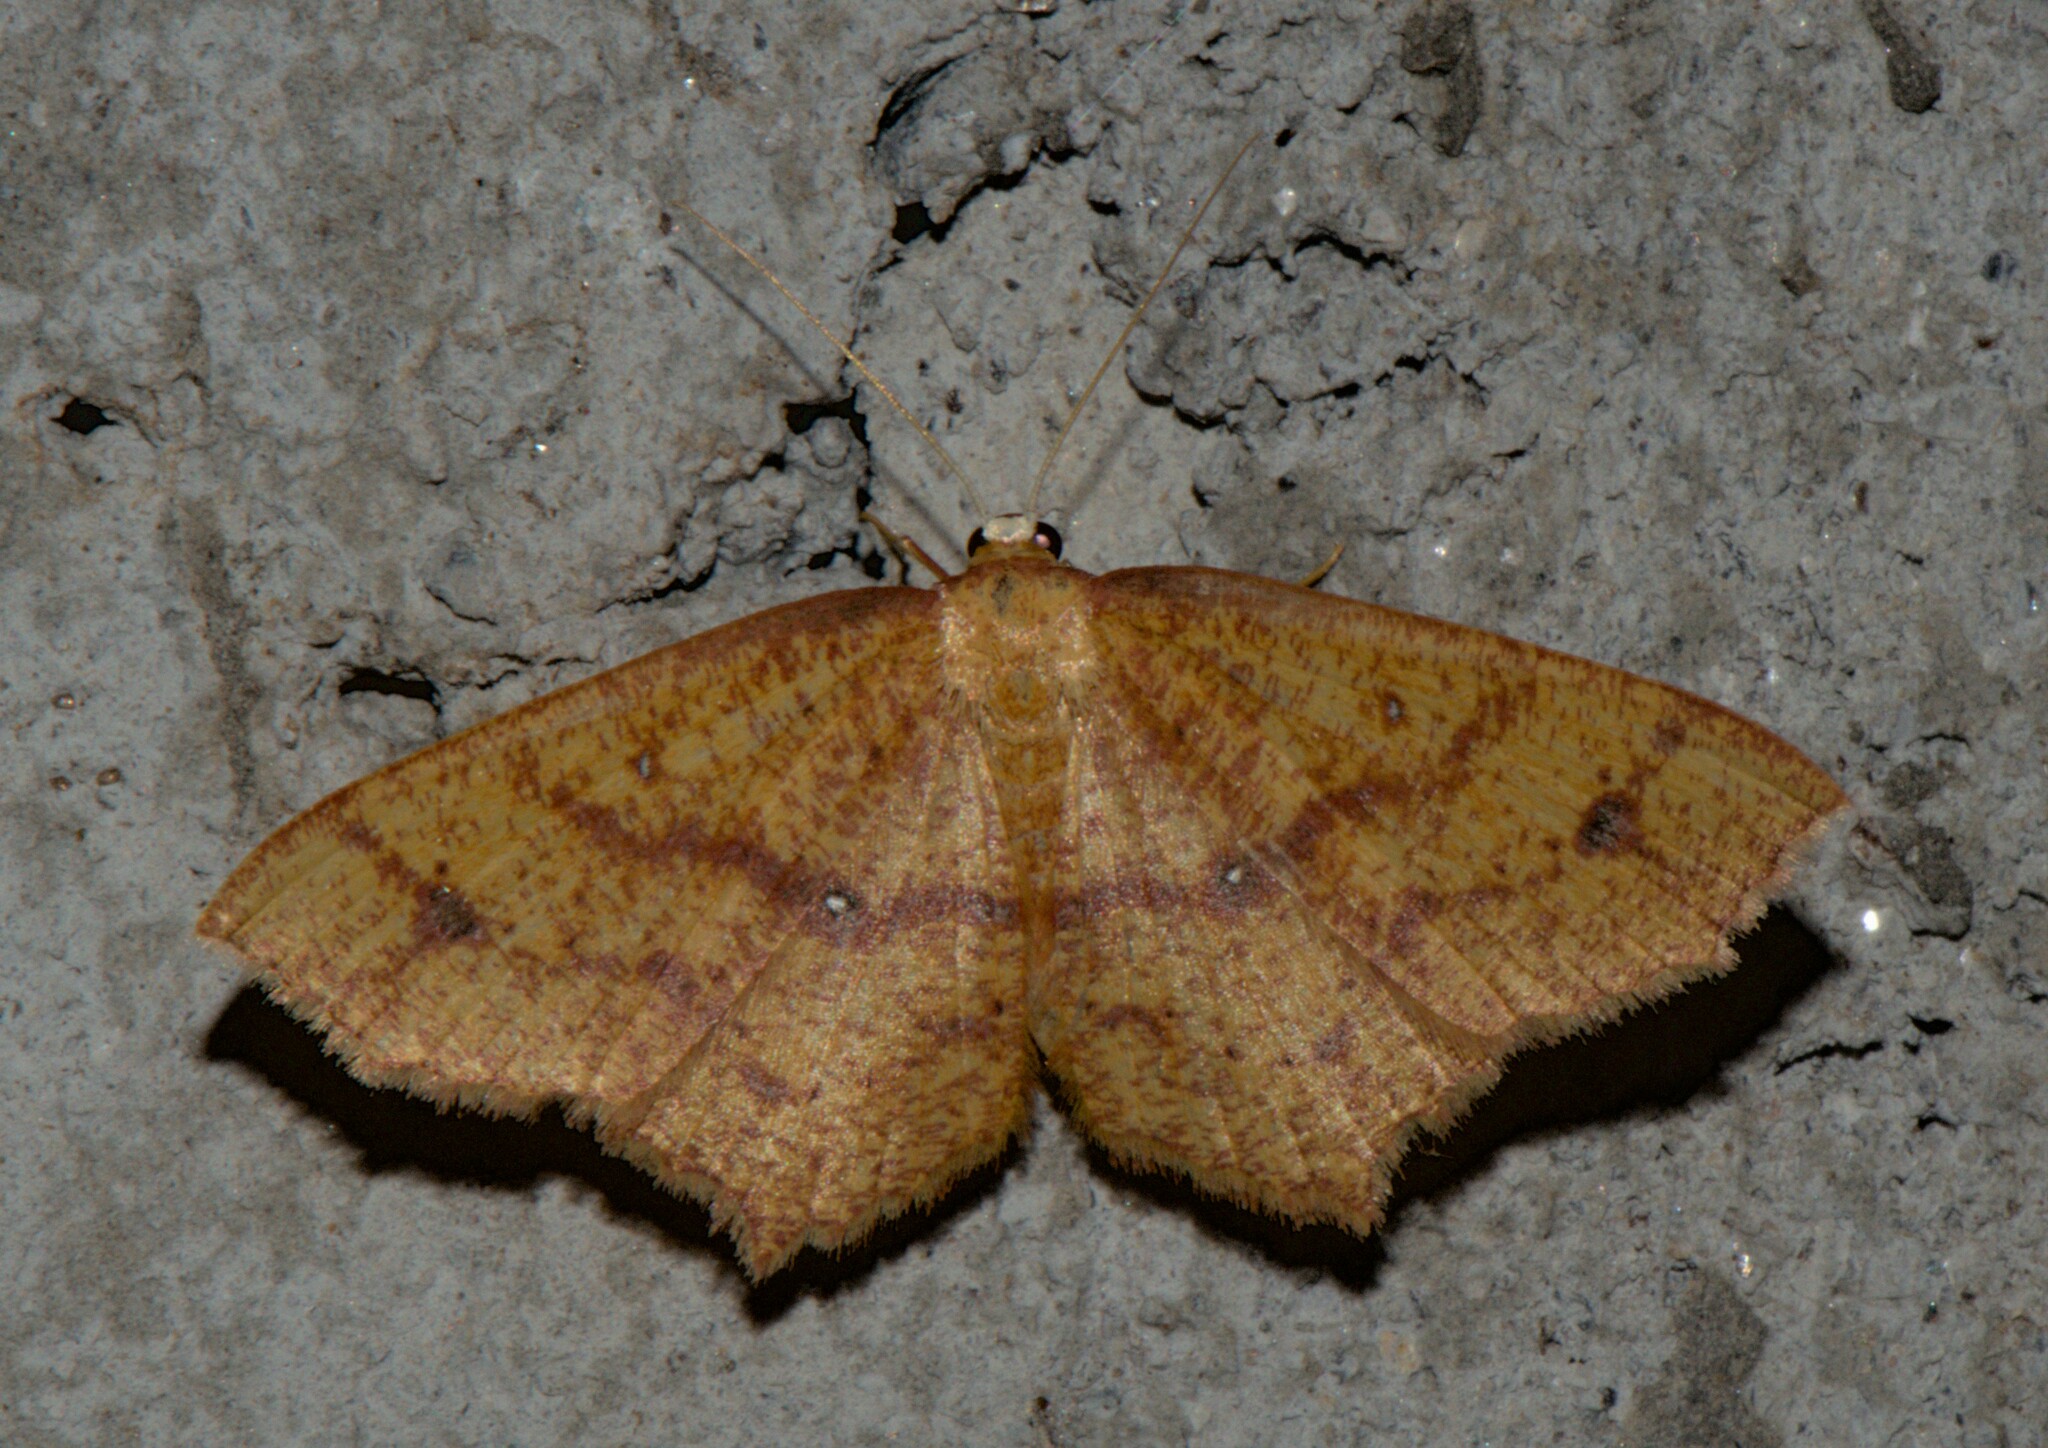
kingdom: Animalia
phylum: Arthropoda
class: Insecta
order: Lepidoptera
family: Geometridae
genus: Synegiodes
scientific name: Synegiodes hyriaria
